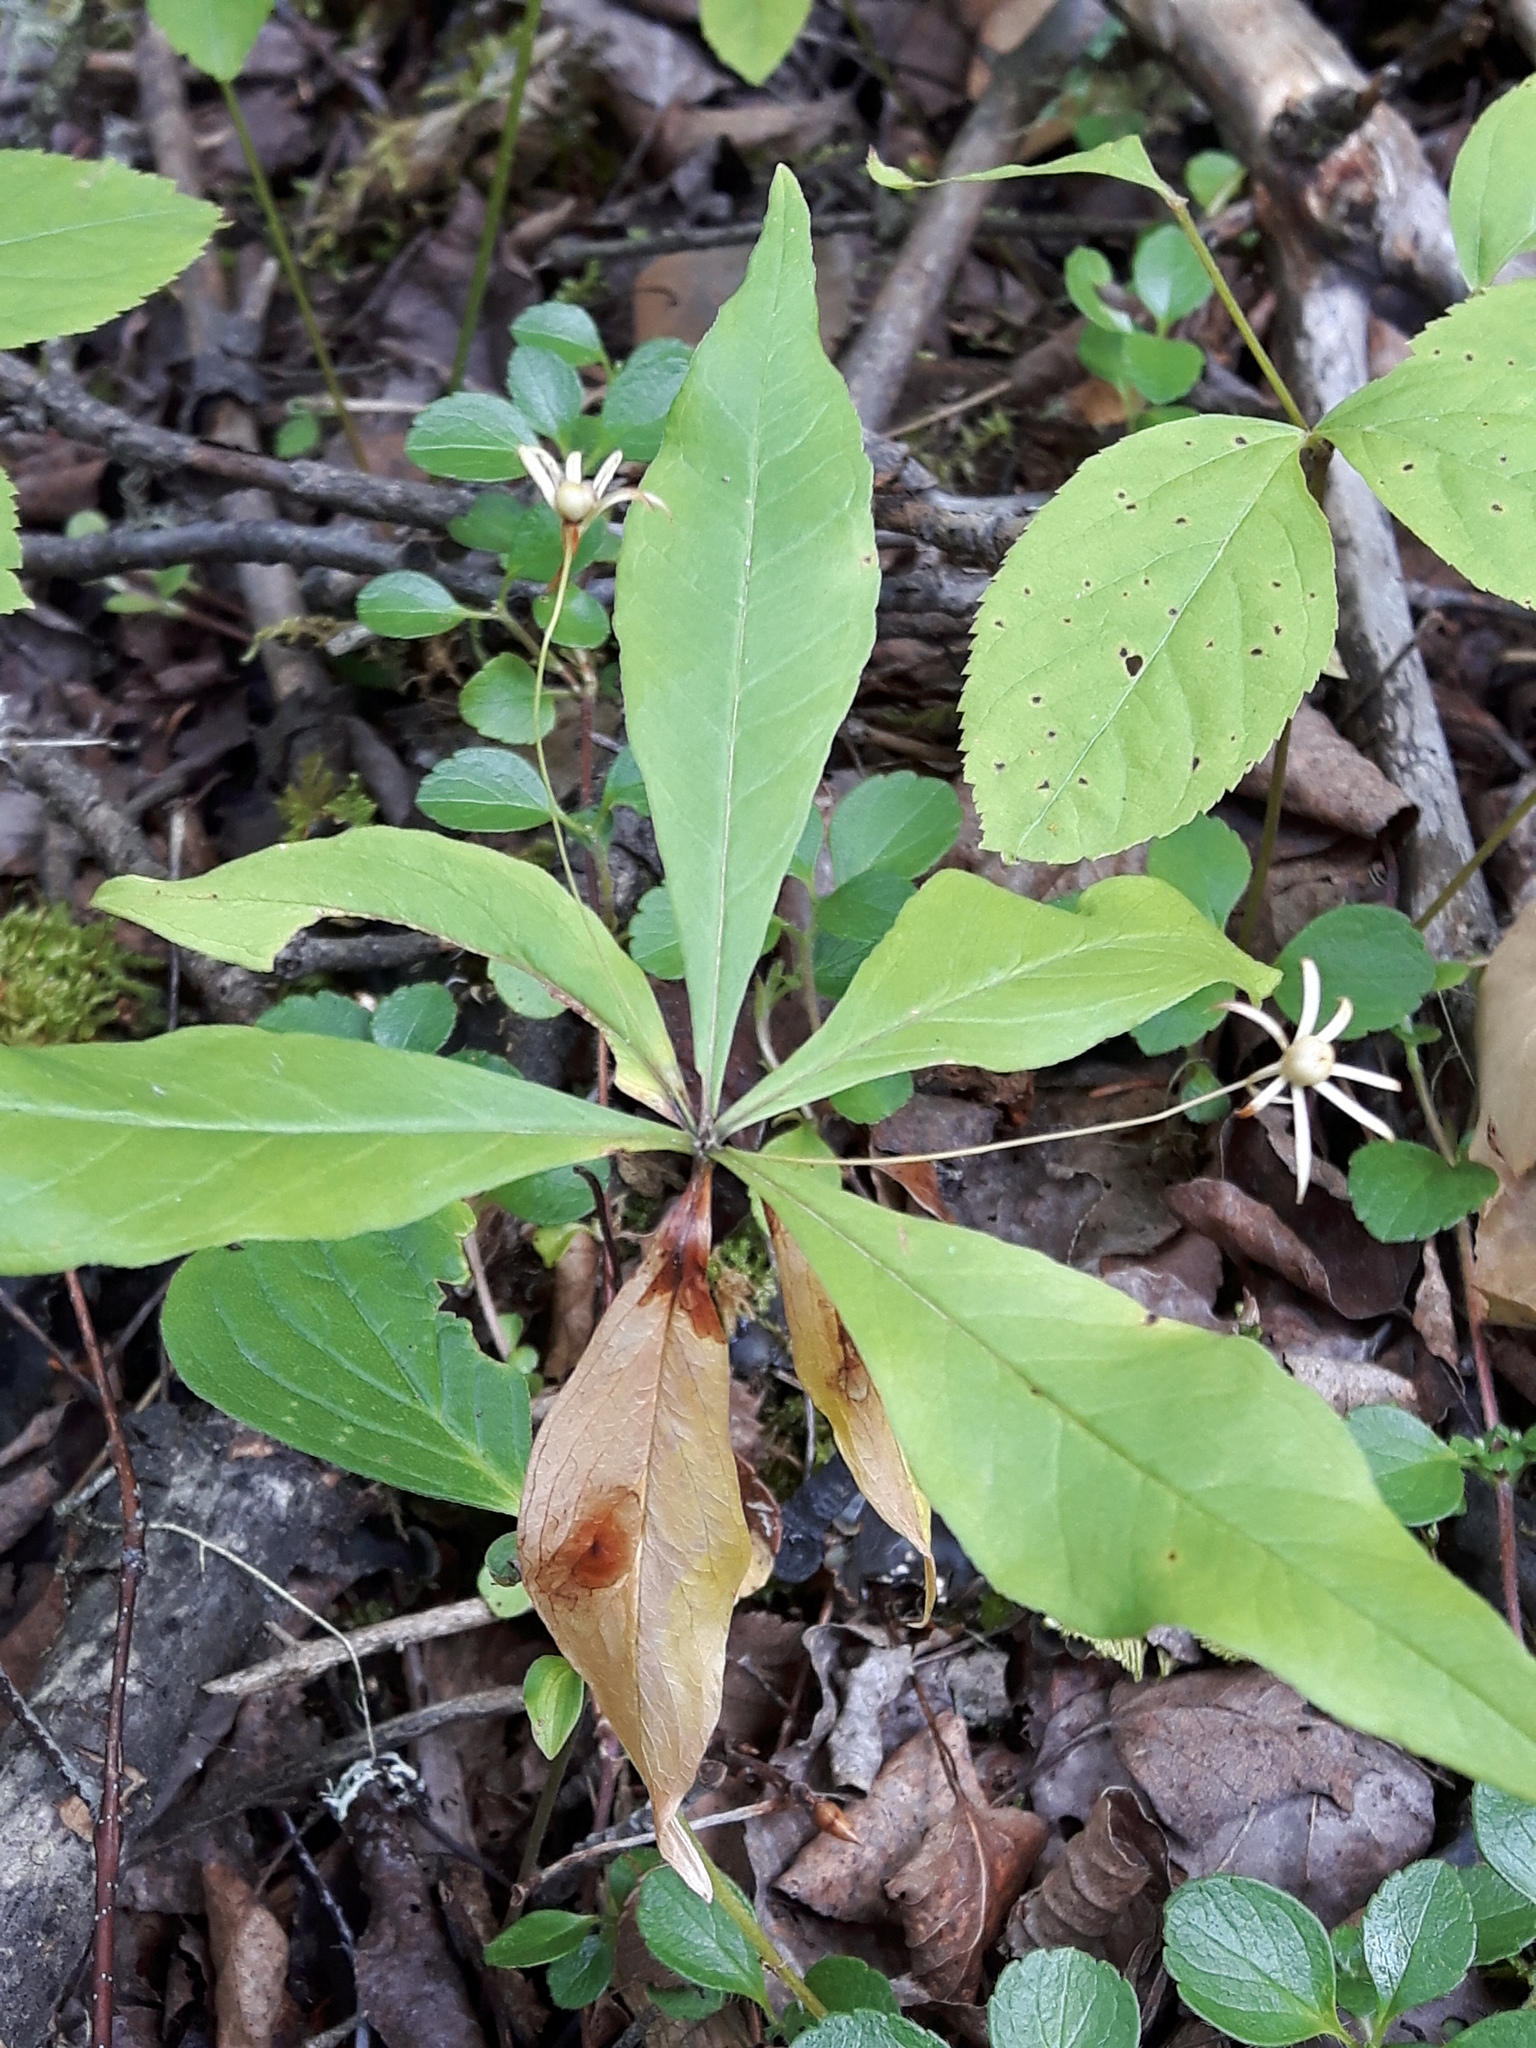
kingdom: Plantae
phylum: Tracheophyta
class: Magnoliopsida
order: Ericales
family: Primulaceae
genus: Lysimachia
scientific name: Lysimachia borealis
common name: American starflower
